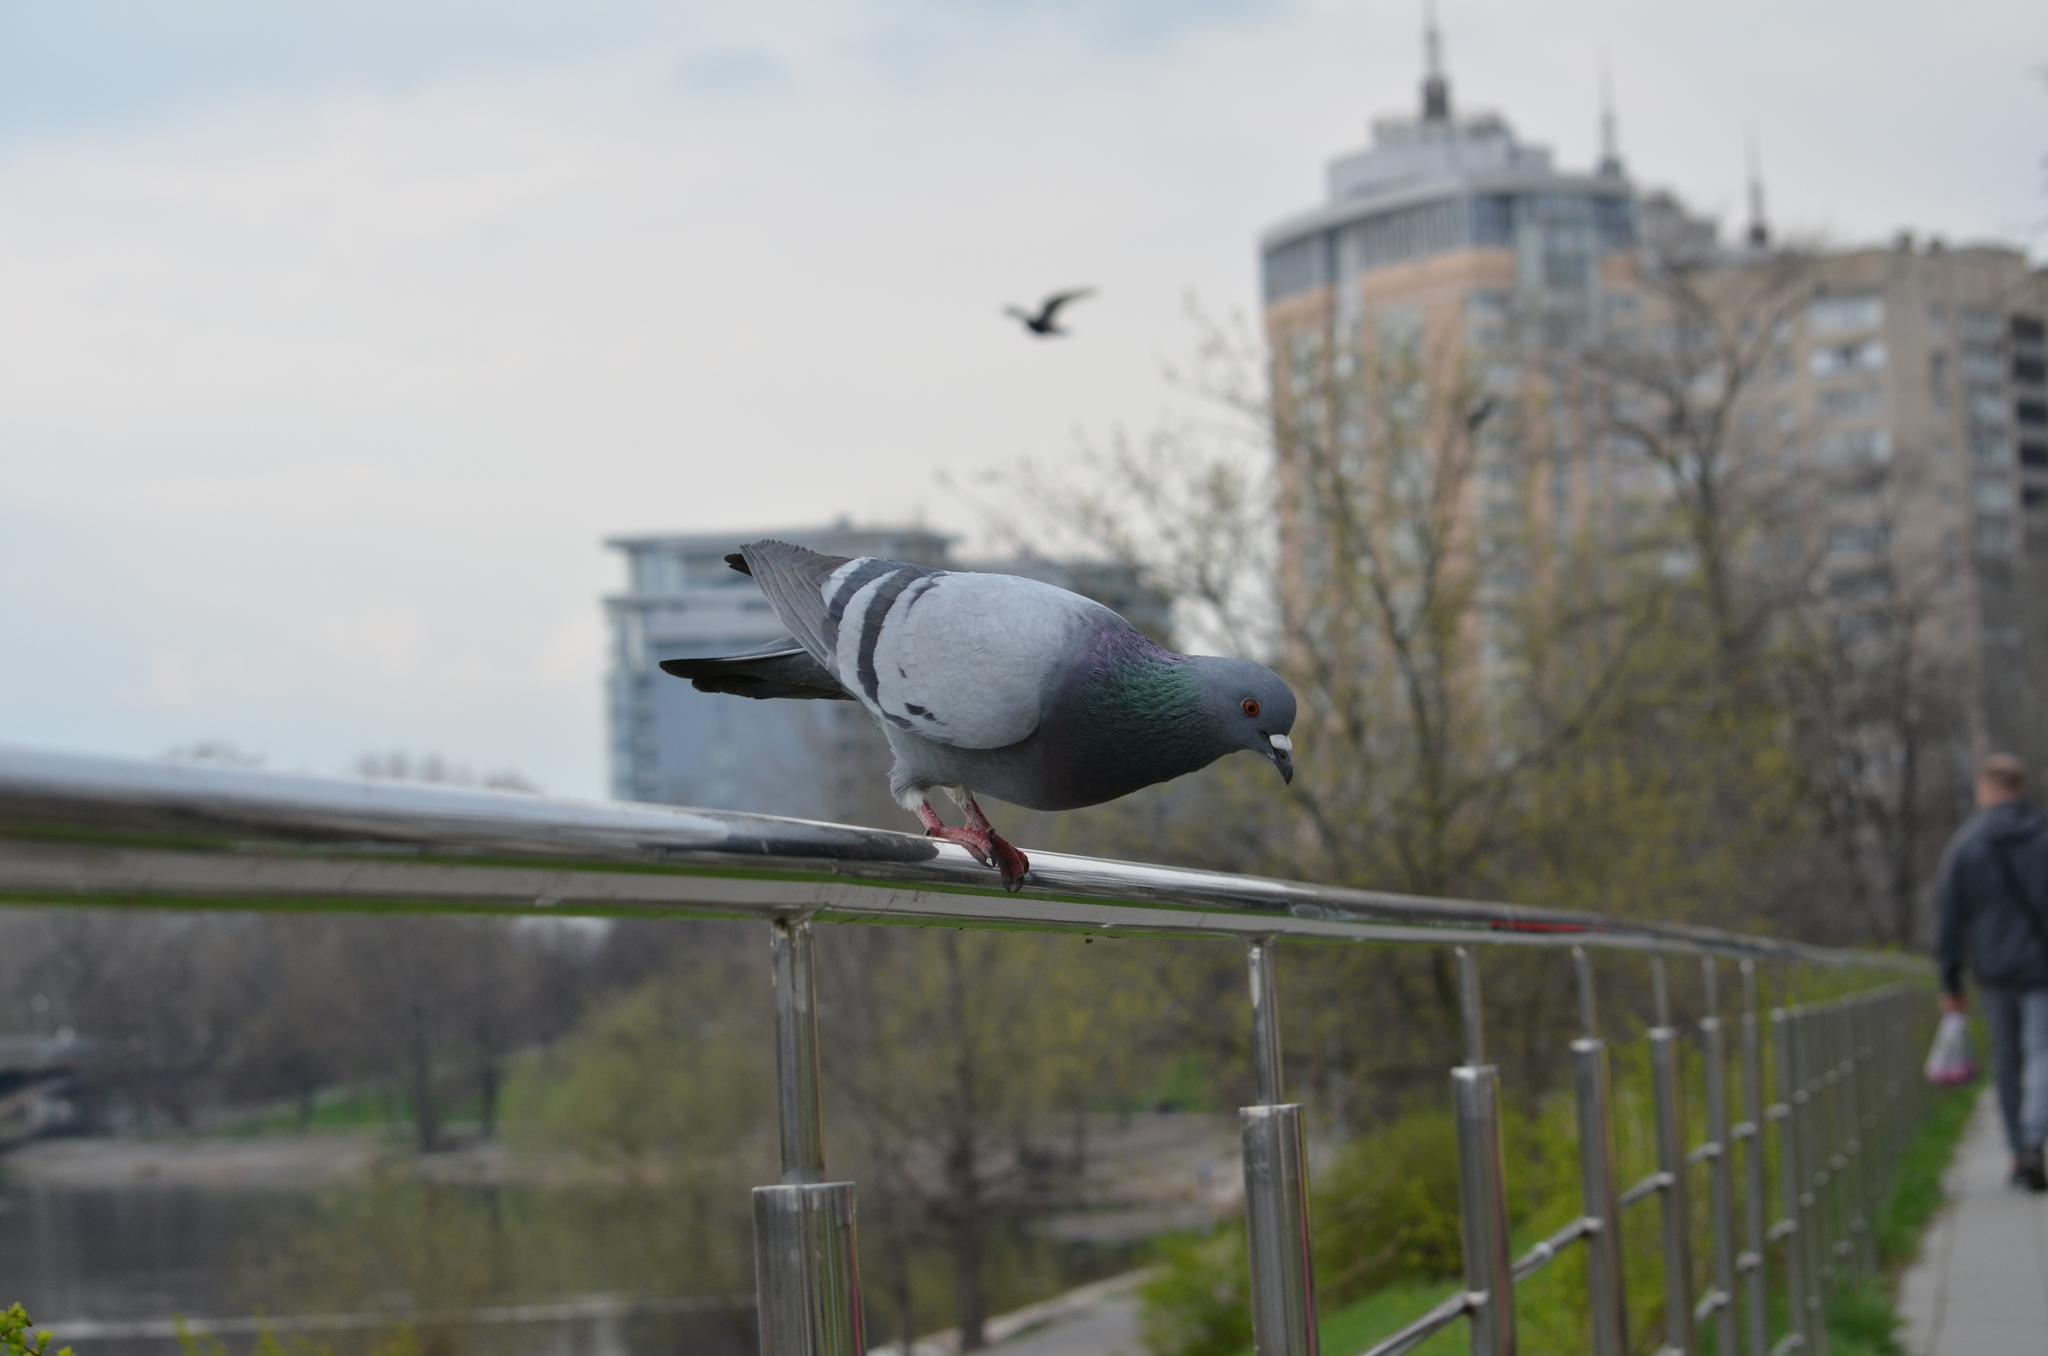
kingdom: Animalia
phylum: Chordata
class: Aves
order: Columbiformes
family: Columbidae
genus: Columba
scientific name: Columba livia
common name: Rock pigeon
